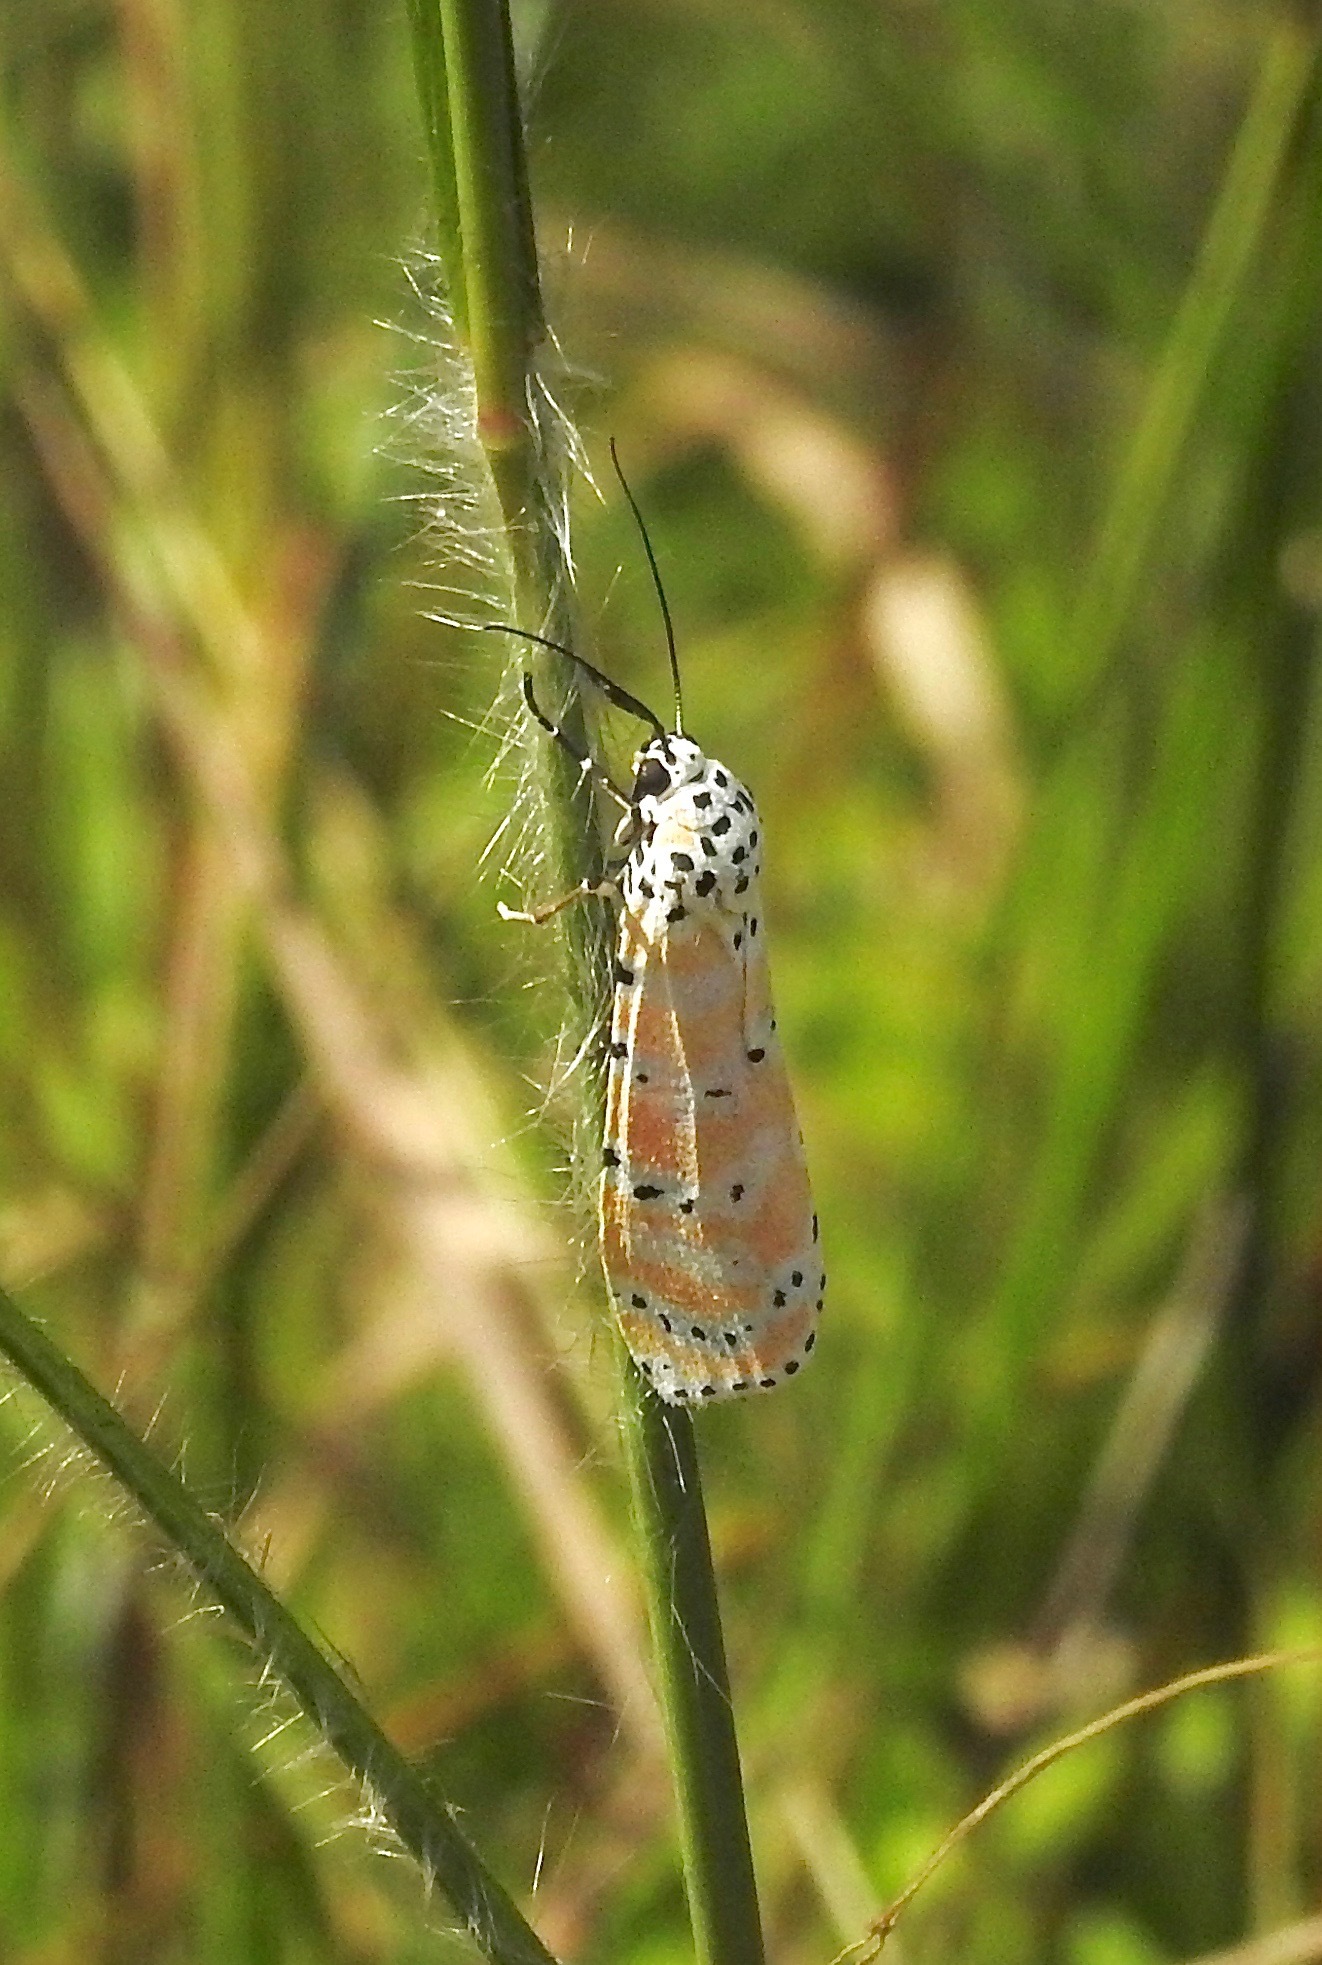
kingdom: Animalia
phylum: Arthropoda
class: Insecta
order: Lepidoptera
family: Erebidae
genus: Utetheisa
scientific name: Utetheisa ornatrix
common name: Beautiful utetheisa
